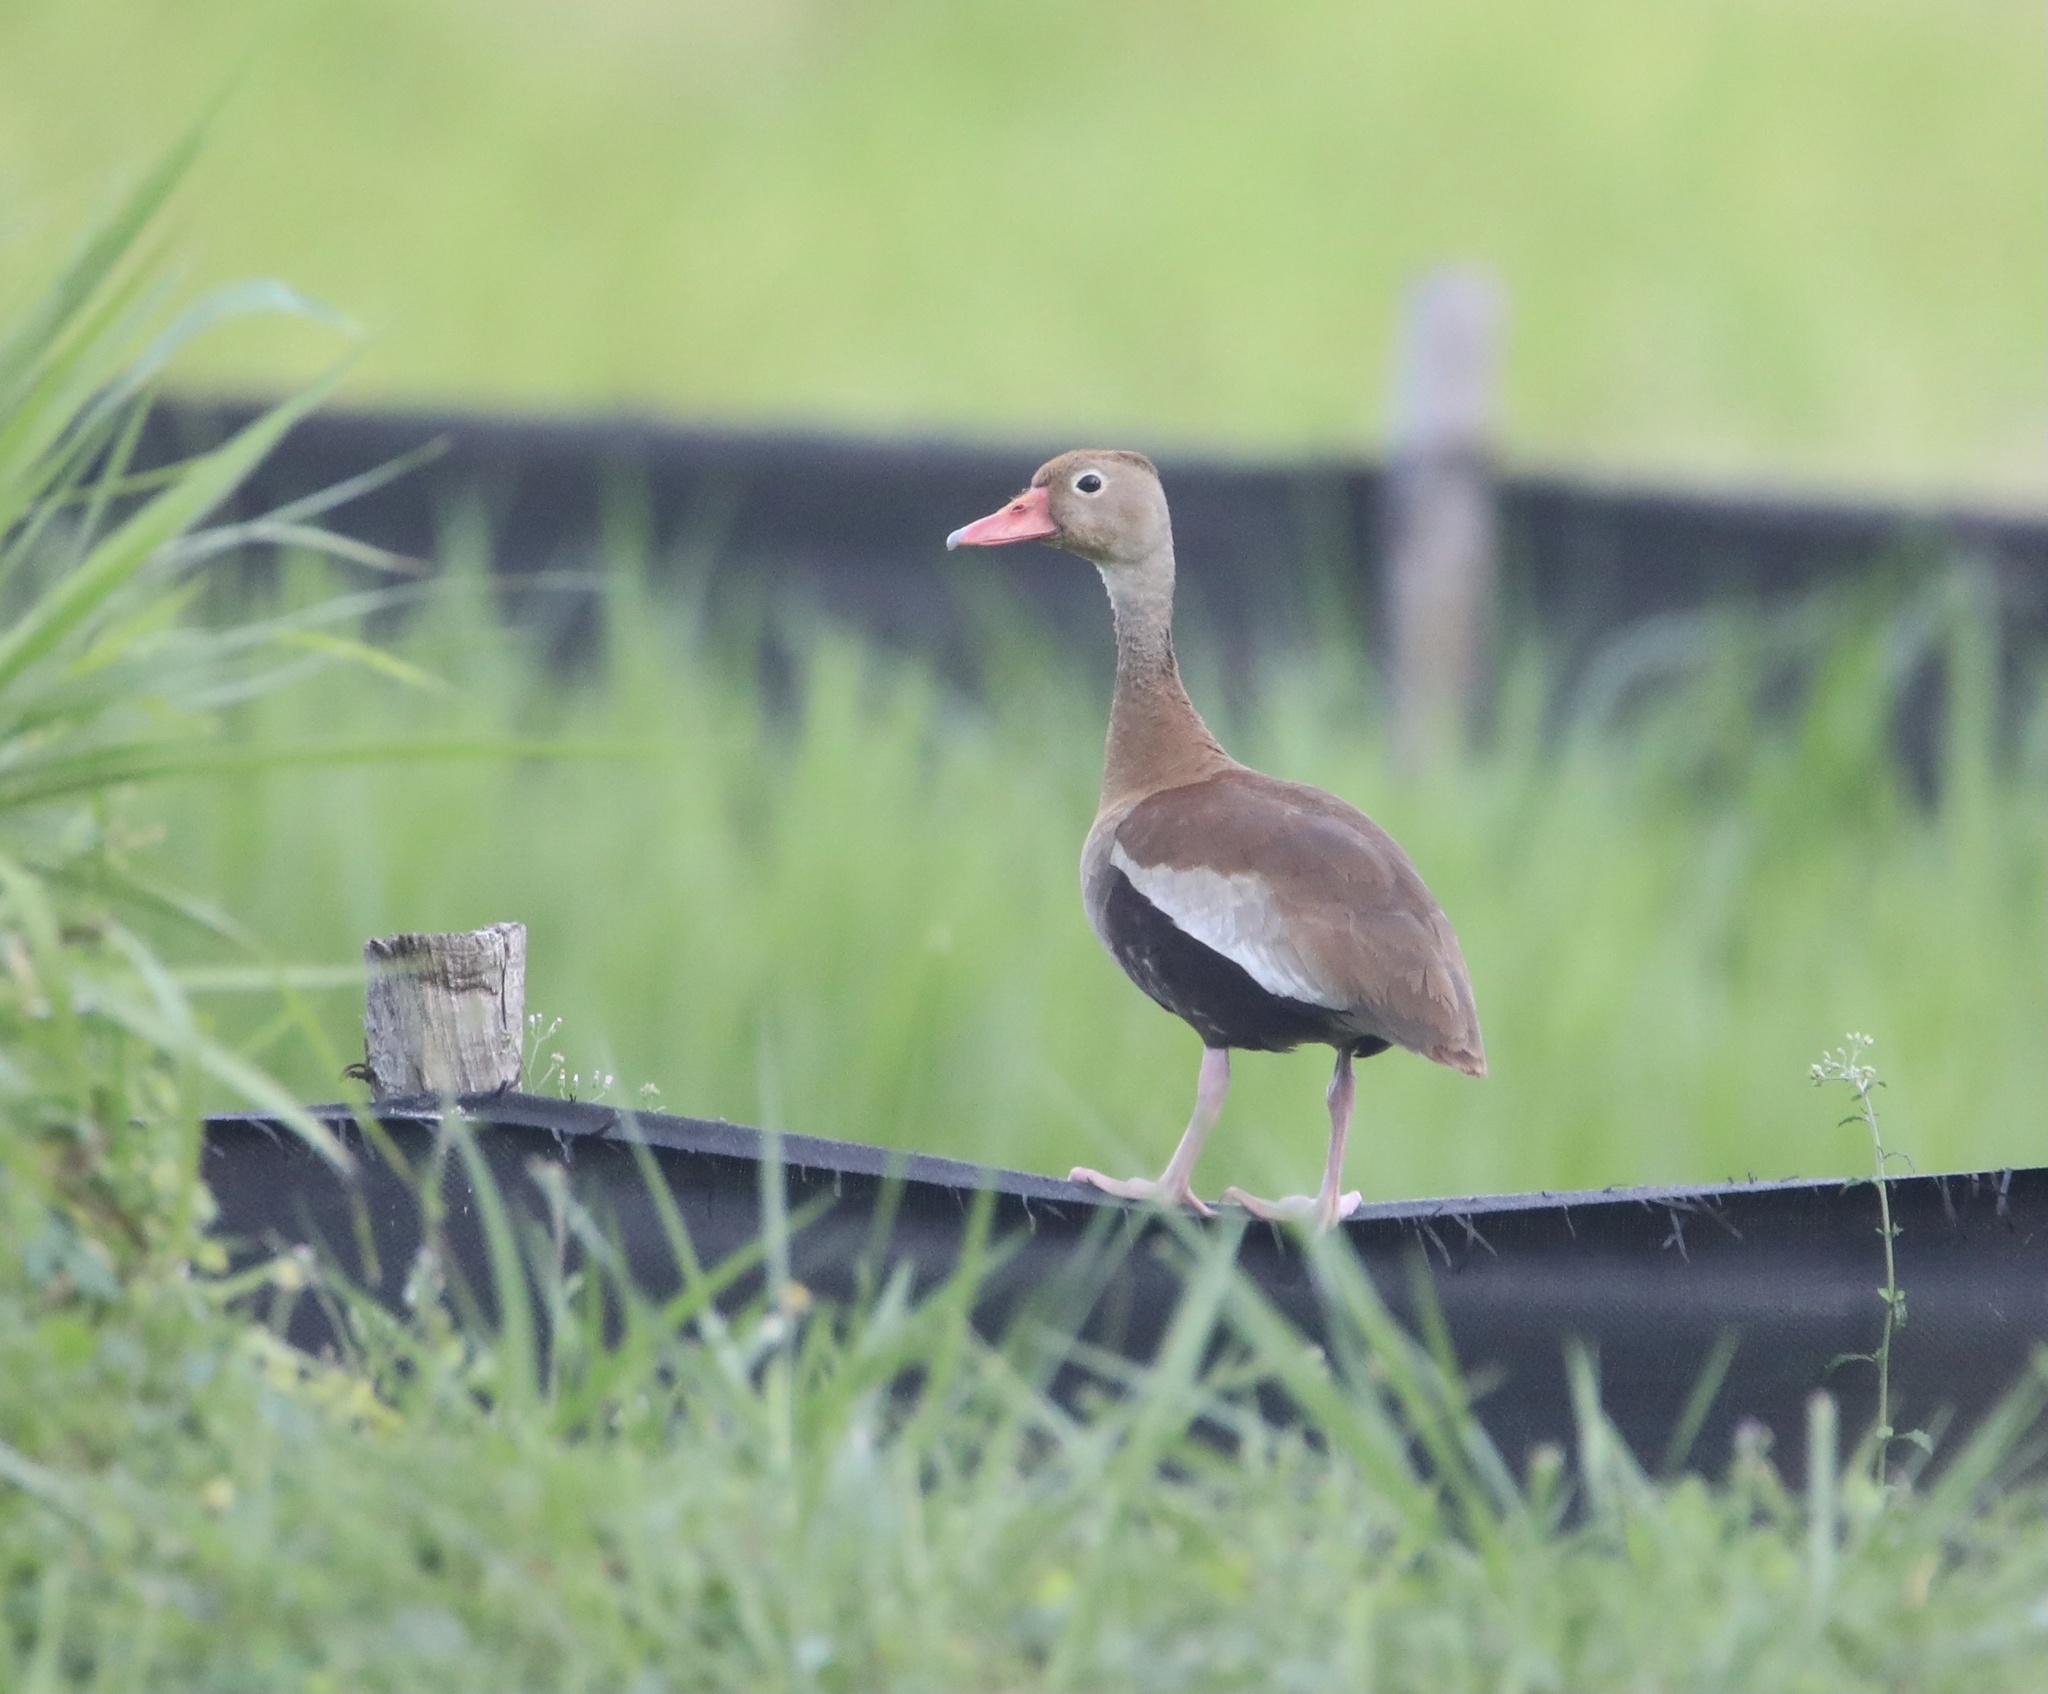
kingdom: Animalia
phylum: Chordata
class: Aves
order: Anseriformes
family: Anatidae
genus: Dendrocygna
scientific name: Dendrocygna autumnalis
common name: Black-bellied whistling duck
